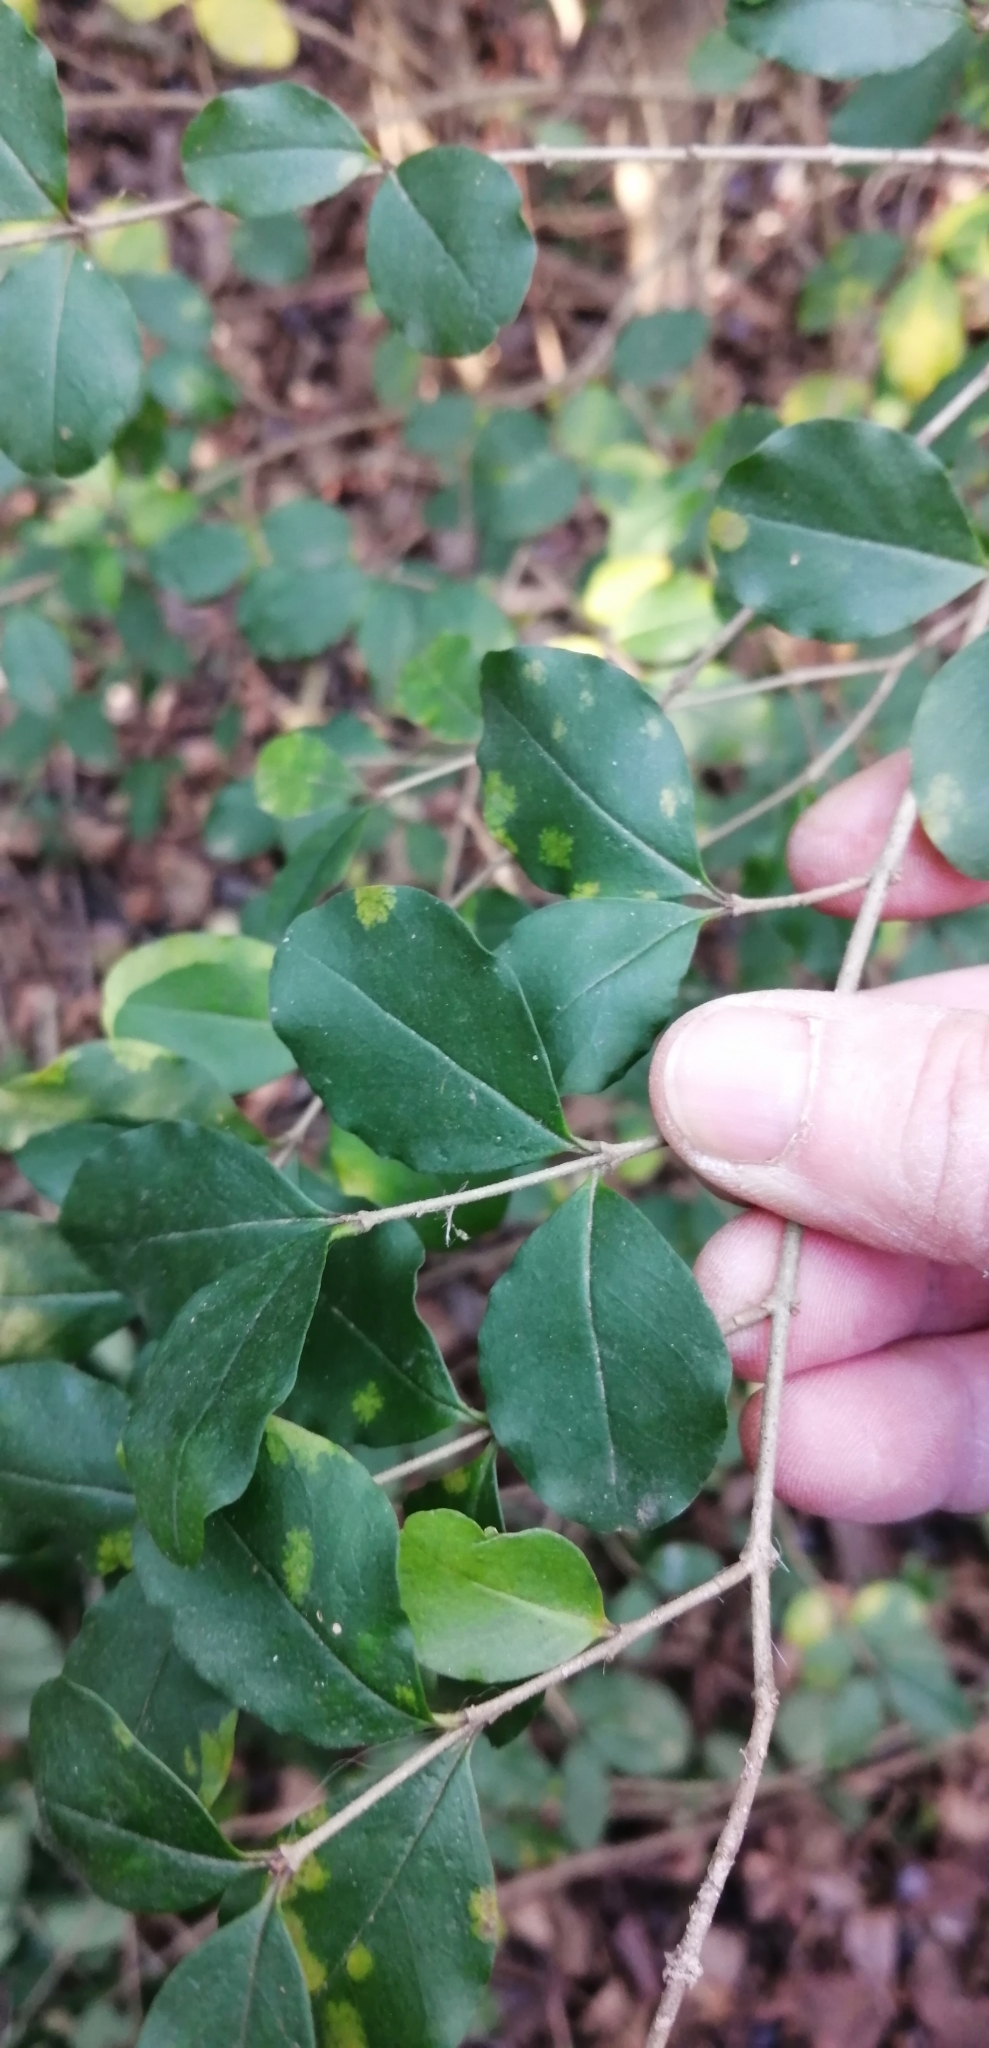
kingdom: Plantae
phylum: Tracheophyta
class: Magnoliopsida
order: Lamiales
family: Oleaceae
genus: Ligustrum
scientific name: Ligustrum sinense
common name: Chinese privet
